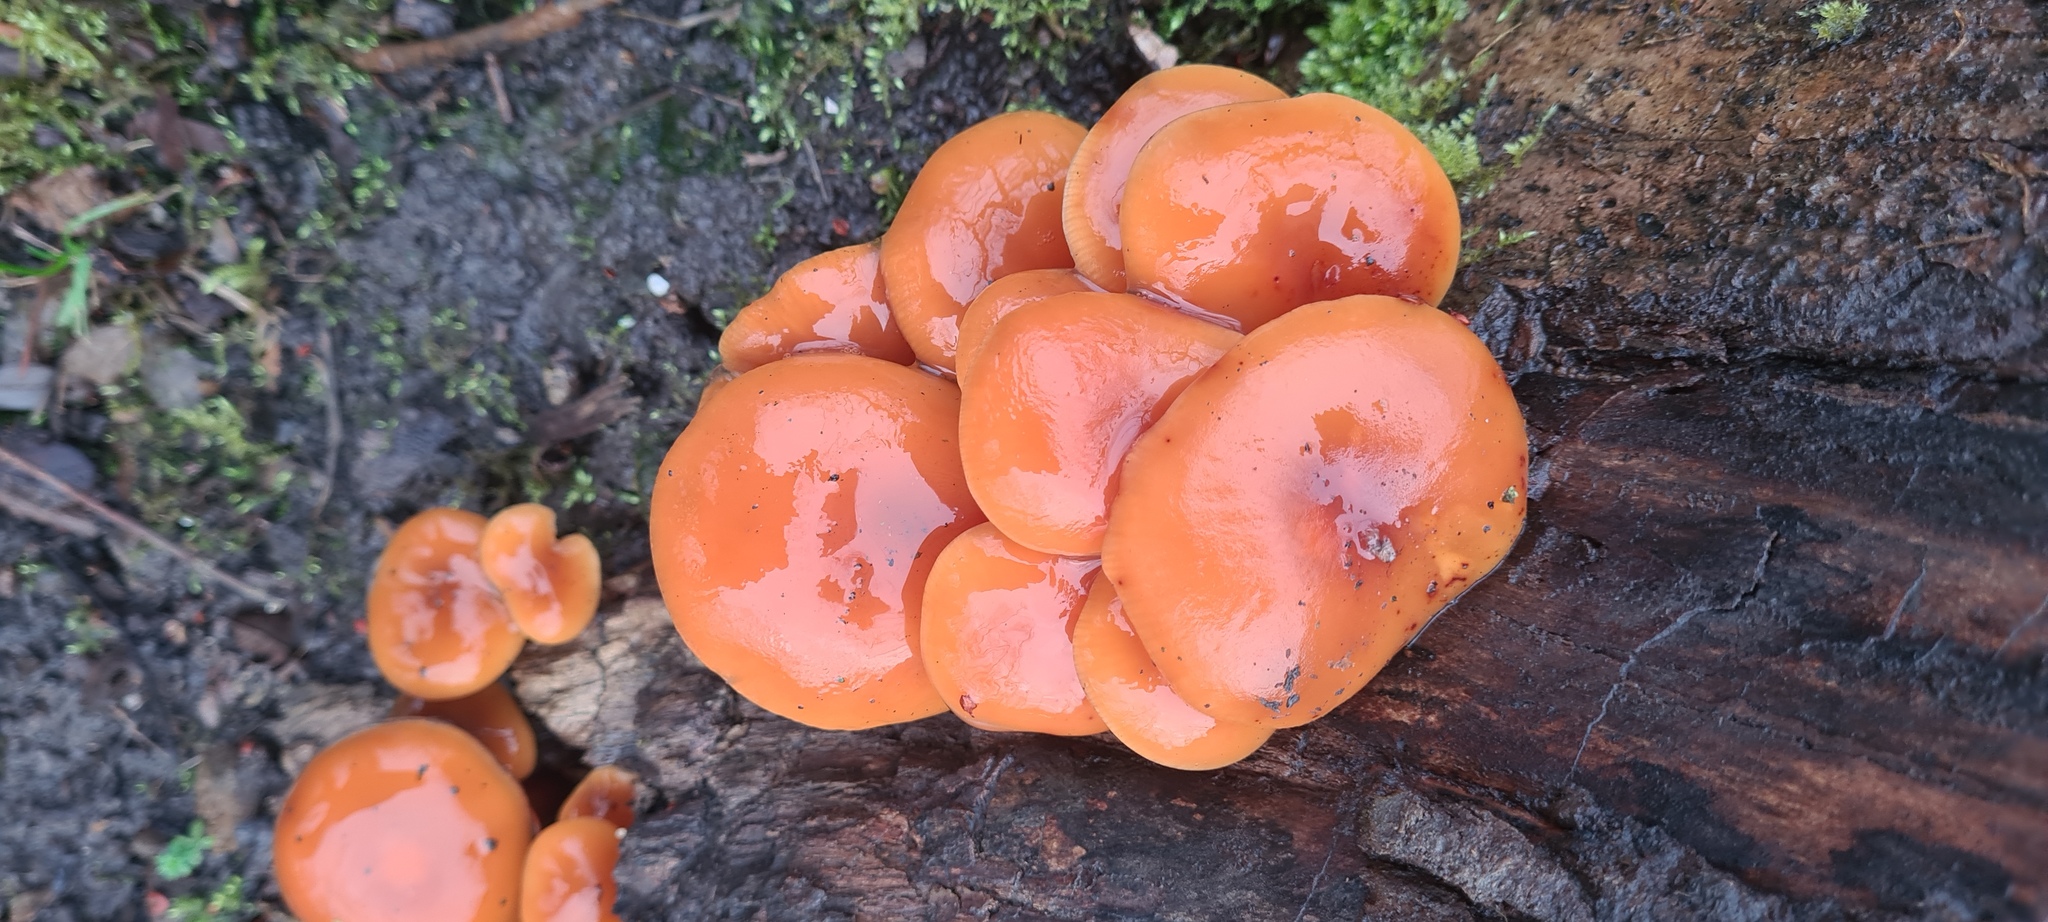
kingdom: Fungi
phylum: Basidiomycota
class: Agaricomycetes
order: Agaricales
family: Physalacriaceae
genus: Flammulina
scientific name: Flammulina
